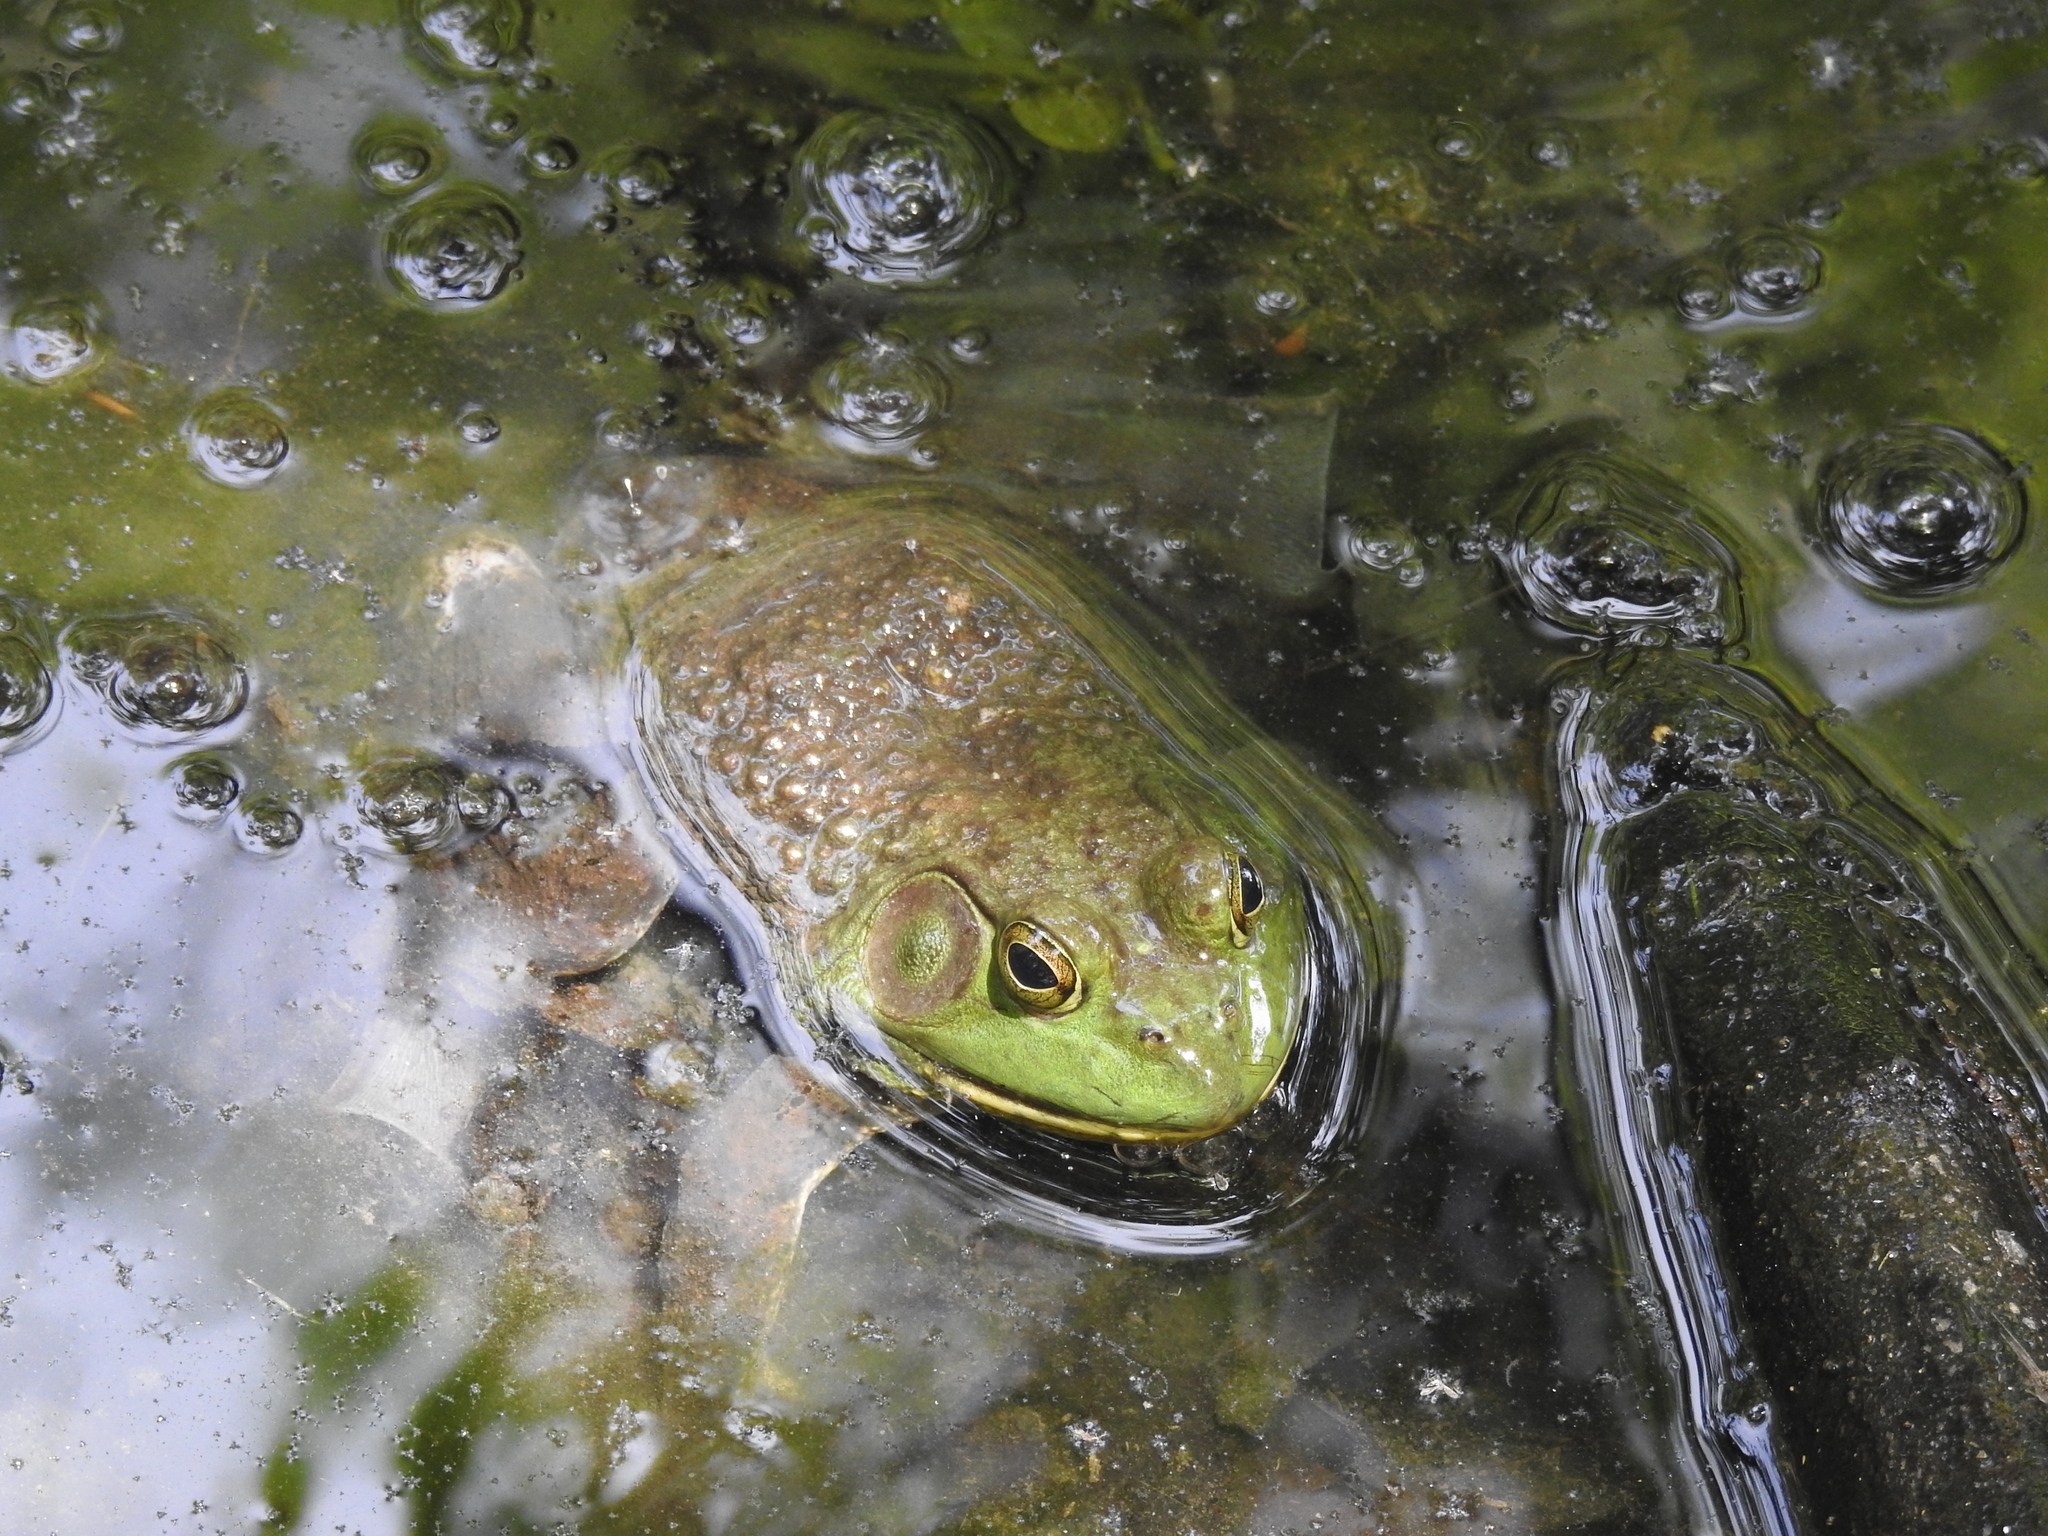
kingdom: Animalia
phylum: Chordata
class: Amphibia
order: Anura
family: Ranidae
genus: Lithobates
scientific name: Lithobates catesbeianus
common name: American bullfrog
